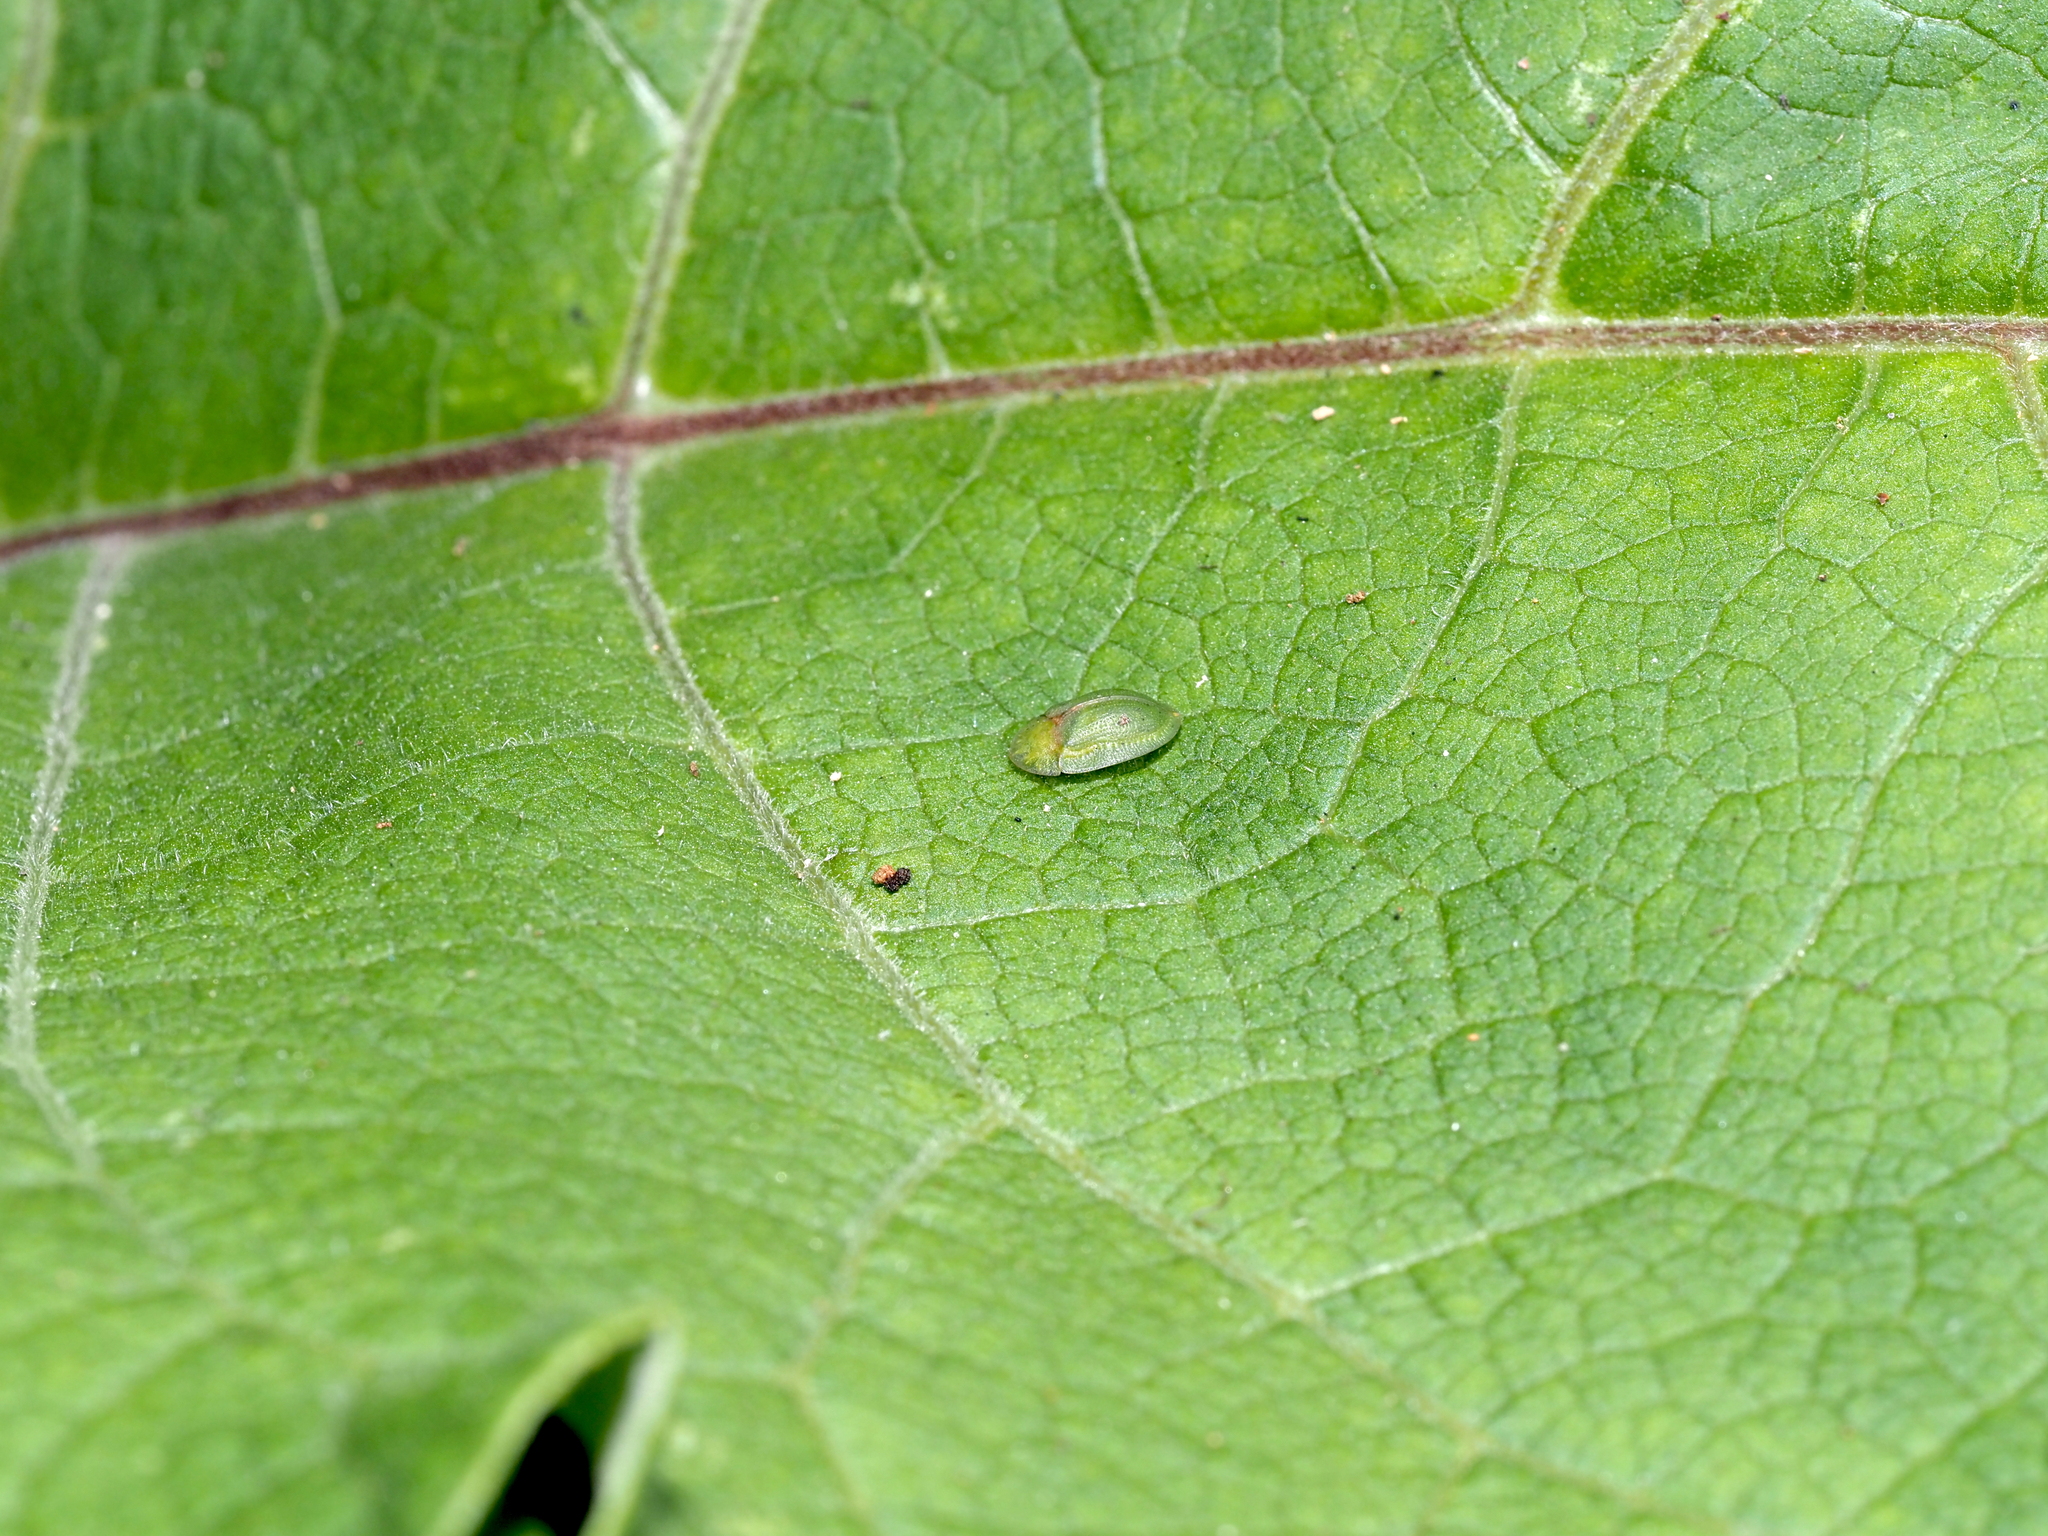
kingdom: Animalia
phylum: Arthropoda
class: Insecta
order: Coleoptera
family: Chrysomelidae
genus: Cassida
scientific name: Cassida rubiginosa
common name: Thistle tortoise beetle
